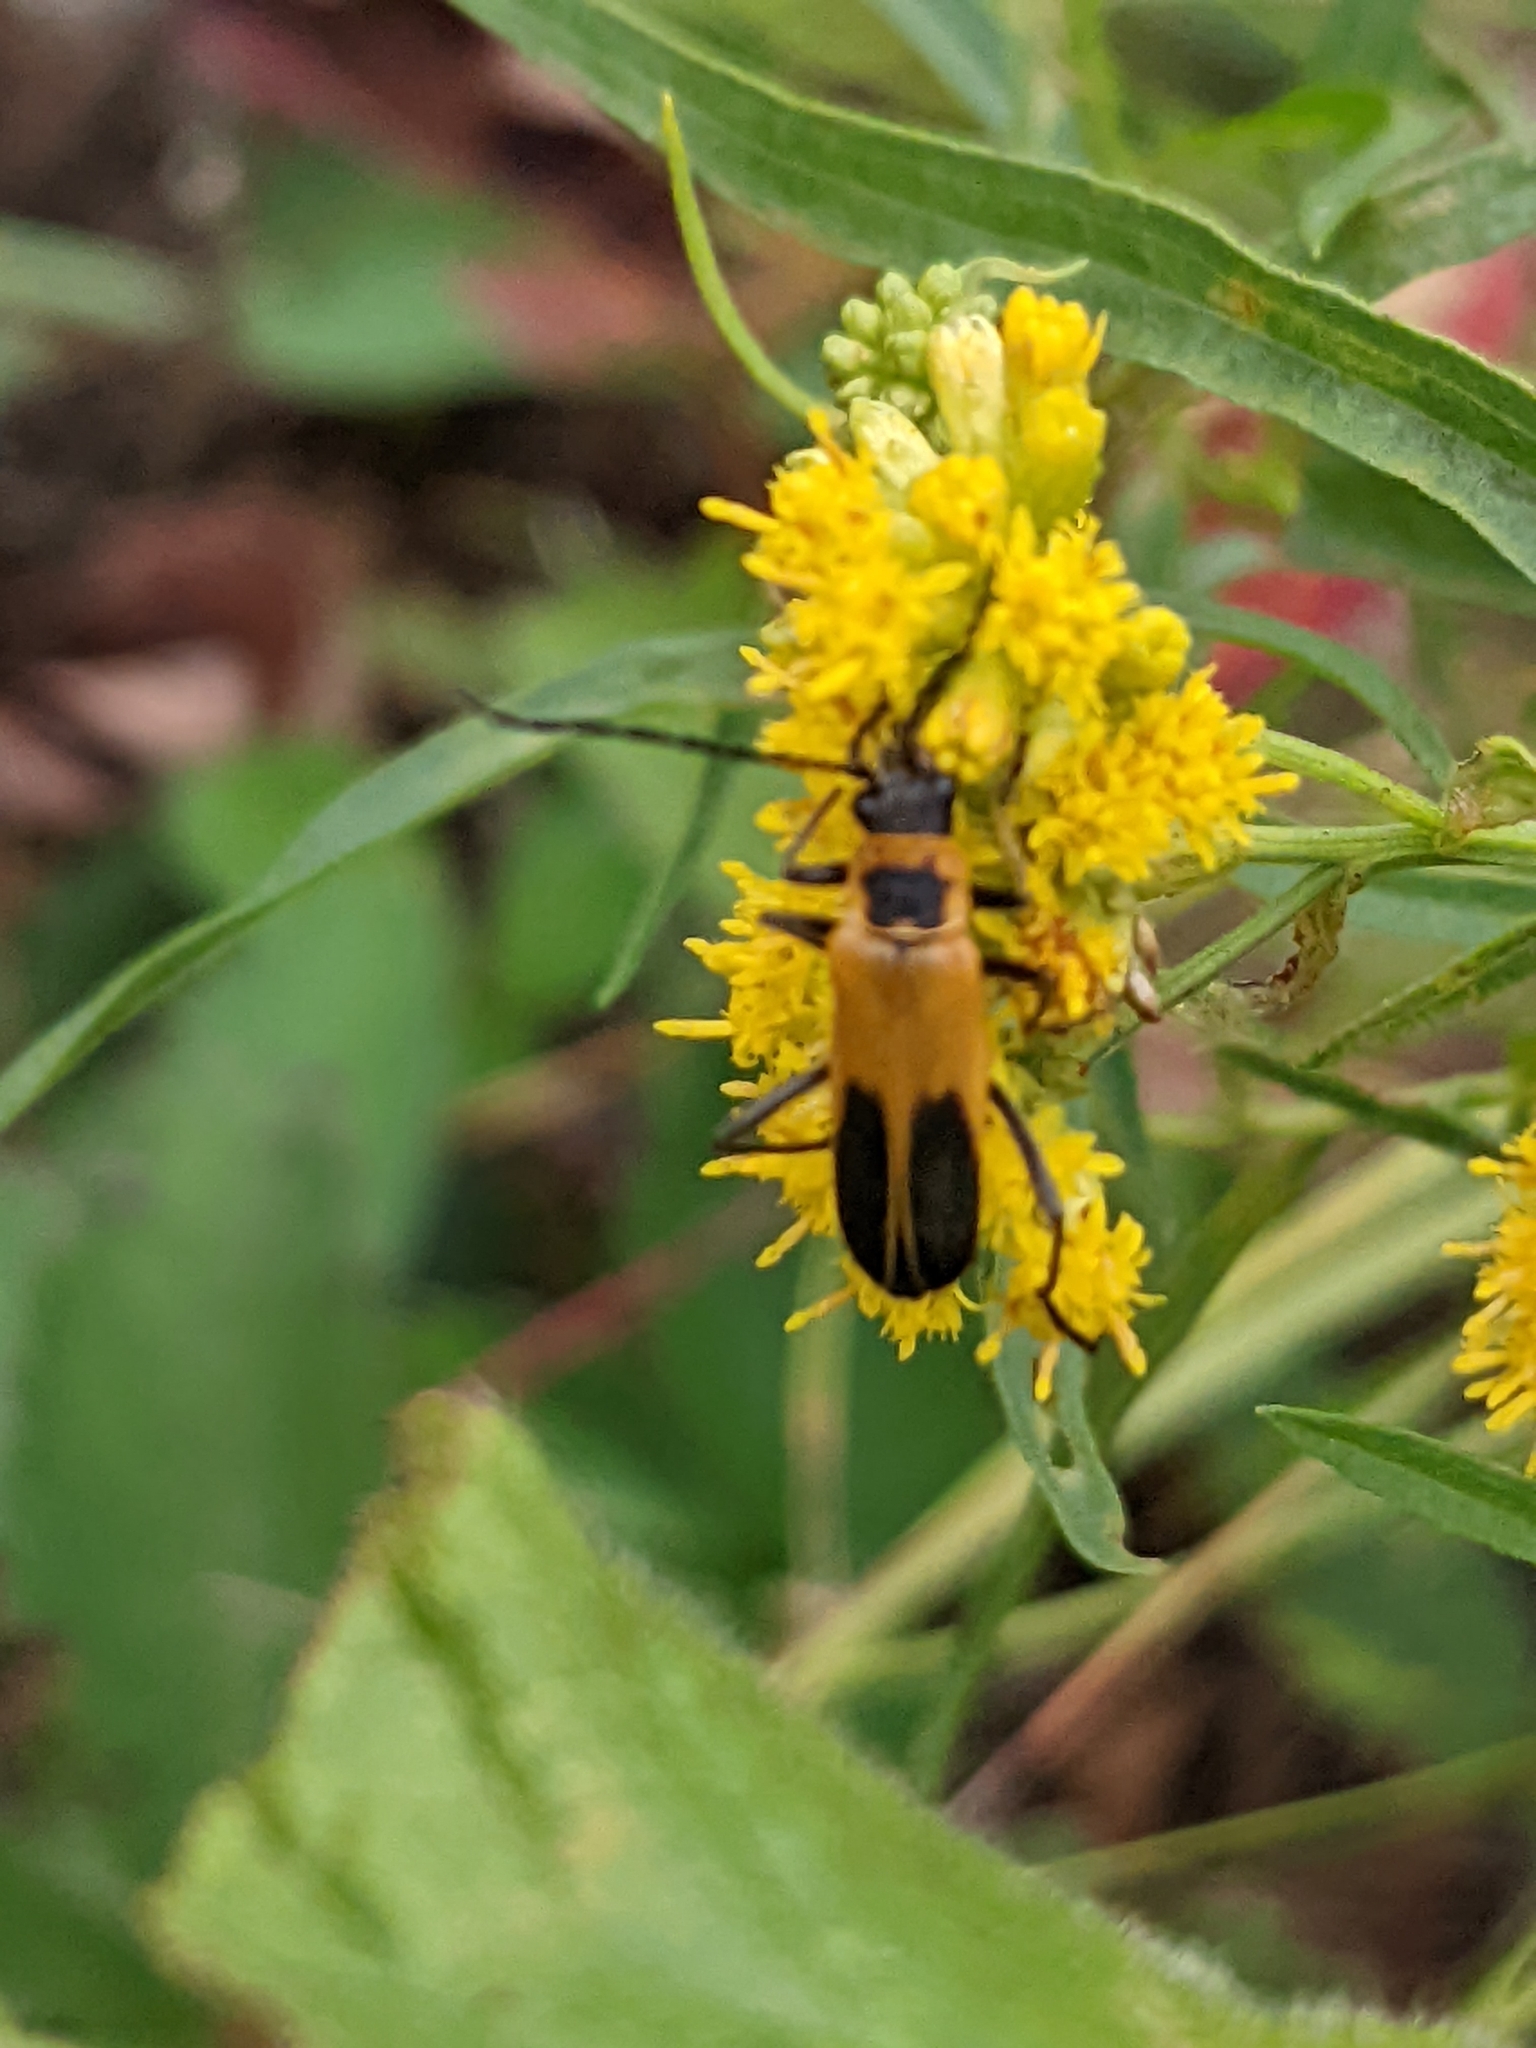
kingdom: Animalia
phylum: Arthropoda
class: Insecta
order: Coleoptera
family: Cantharidae
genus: Chauliognathus
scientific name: Chauliognathus pensylvanicus
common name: Goldenrod soldier beetle
